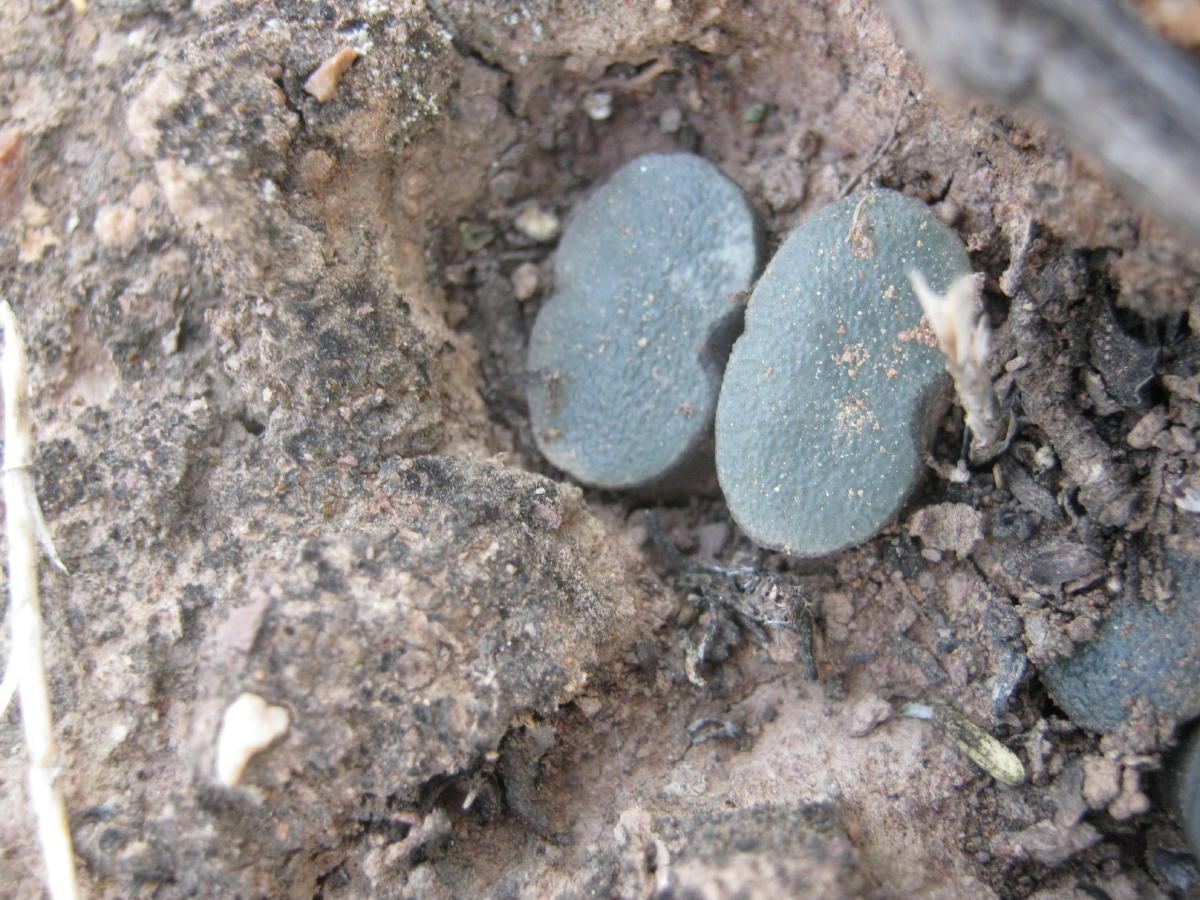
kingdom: Plantae
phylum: Tracheophyta
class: Liliopsida
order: Asparagales
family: Asphodelaceae
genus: Haworthia
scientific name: Haworthia truncata
